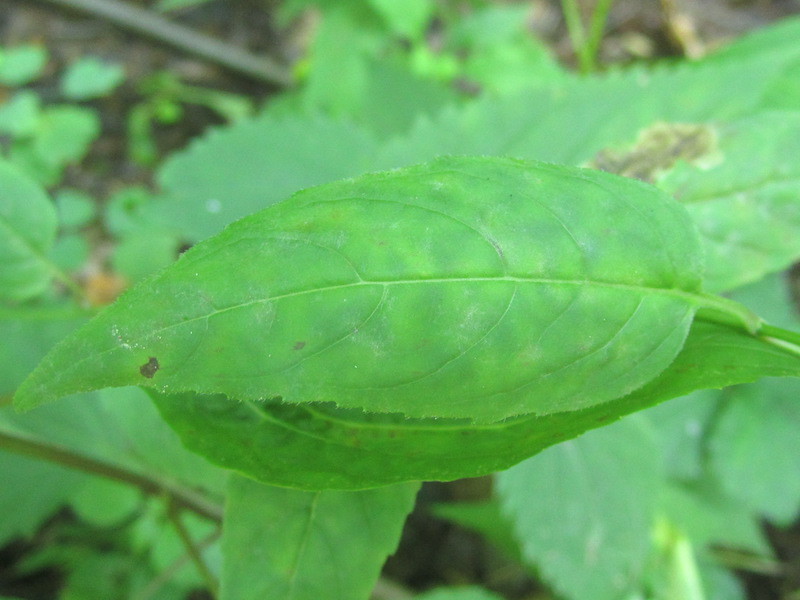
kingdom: Plantae
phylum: Tracheophyta
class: Magnoliopsida
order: Lamiales
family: Lamiaceae
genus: Monarda
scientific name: Monarda clinopodia
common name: Basil beebalm
